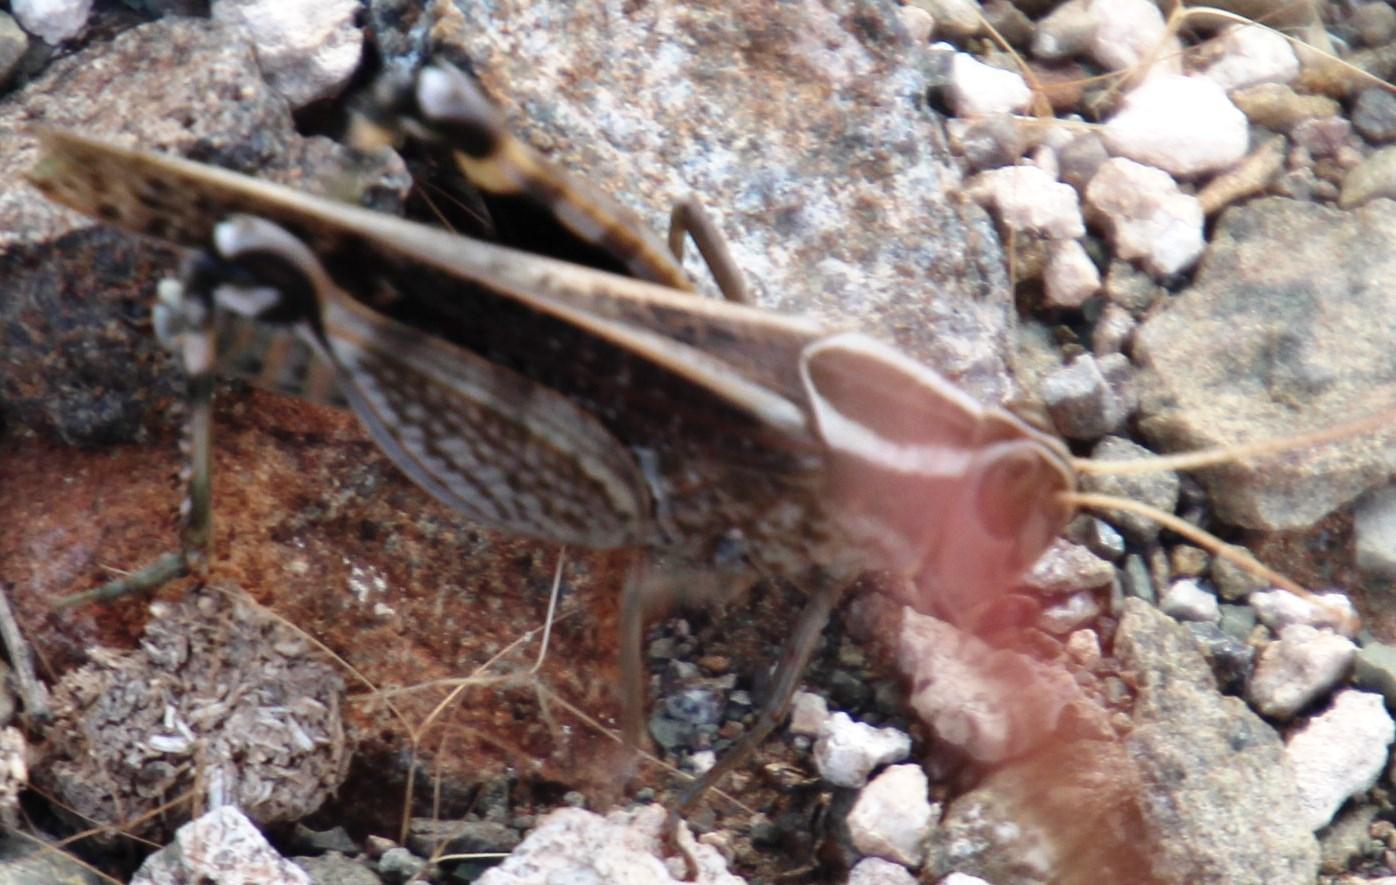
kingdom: Animalia
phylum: Arthropoda
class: Insecta
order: Orthoptera
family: Acrididae
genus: Sphodromerus
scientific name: Sphodromerus gilli
